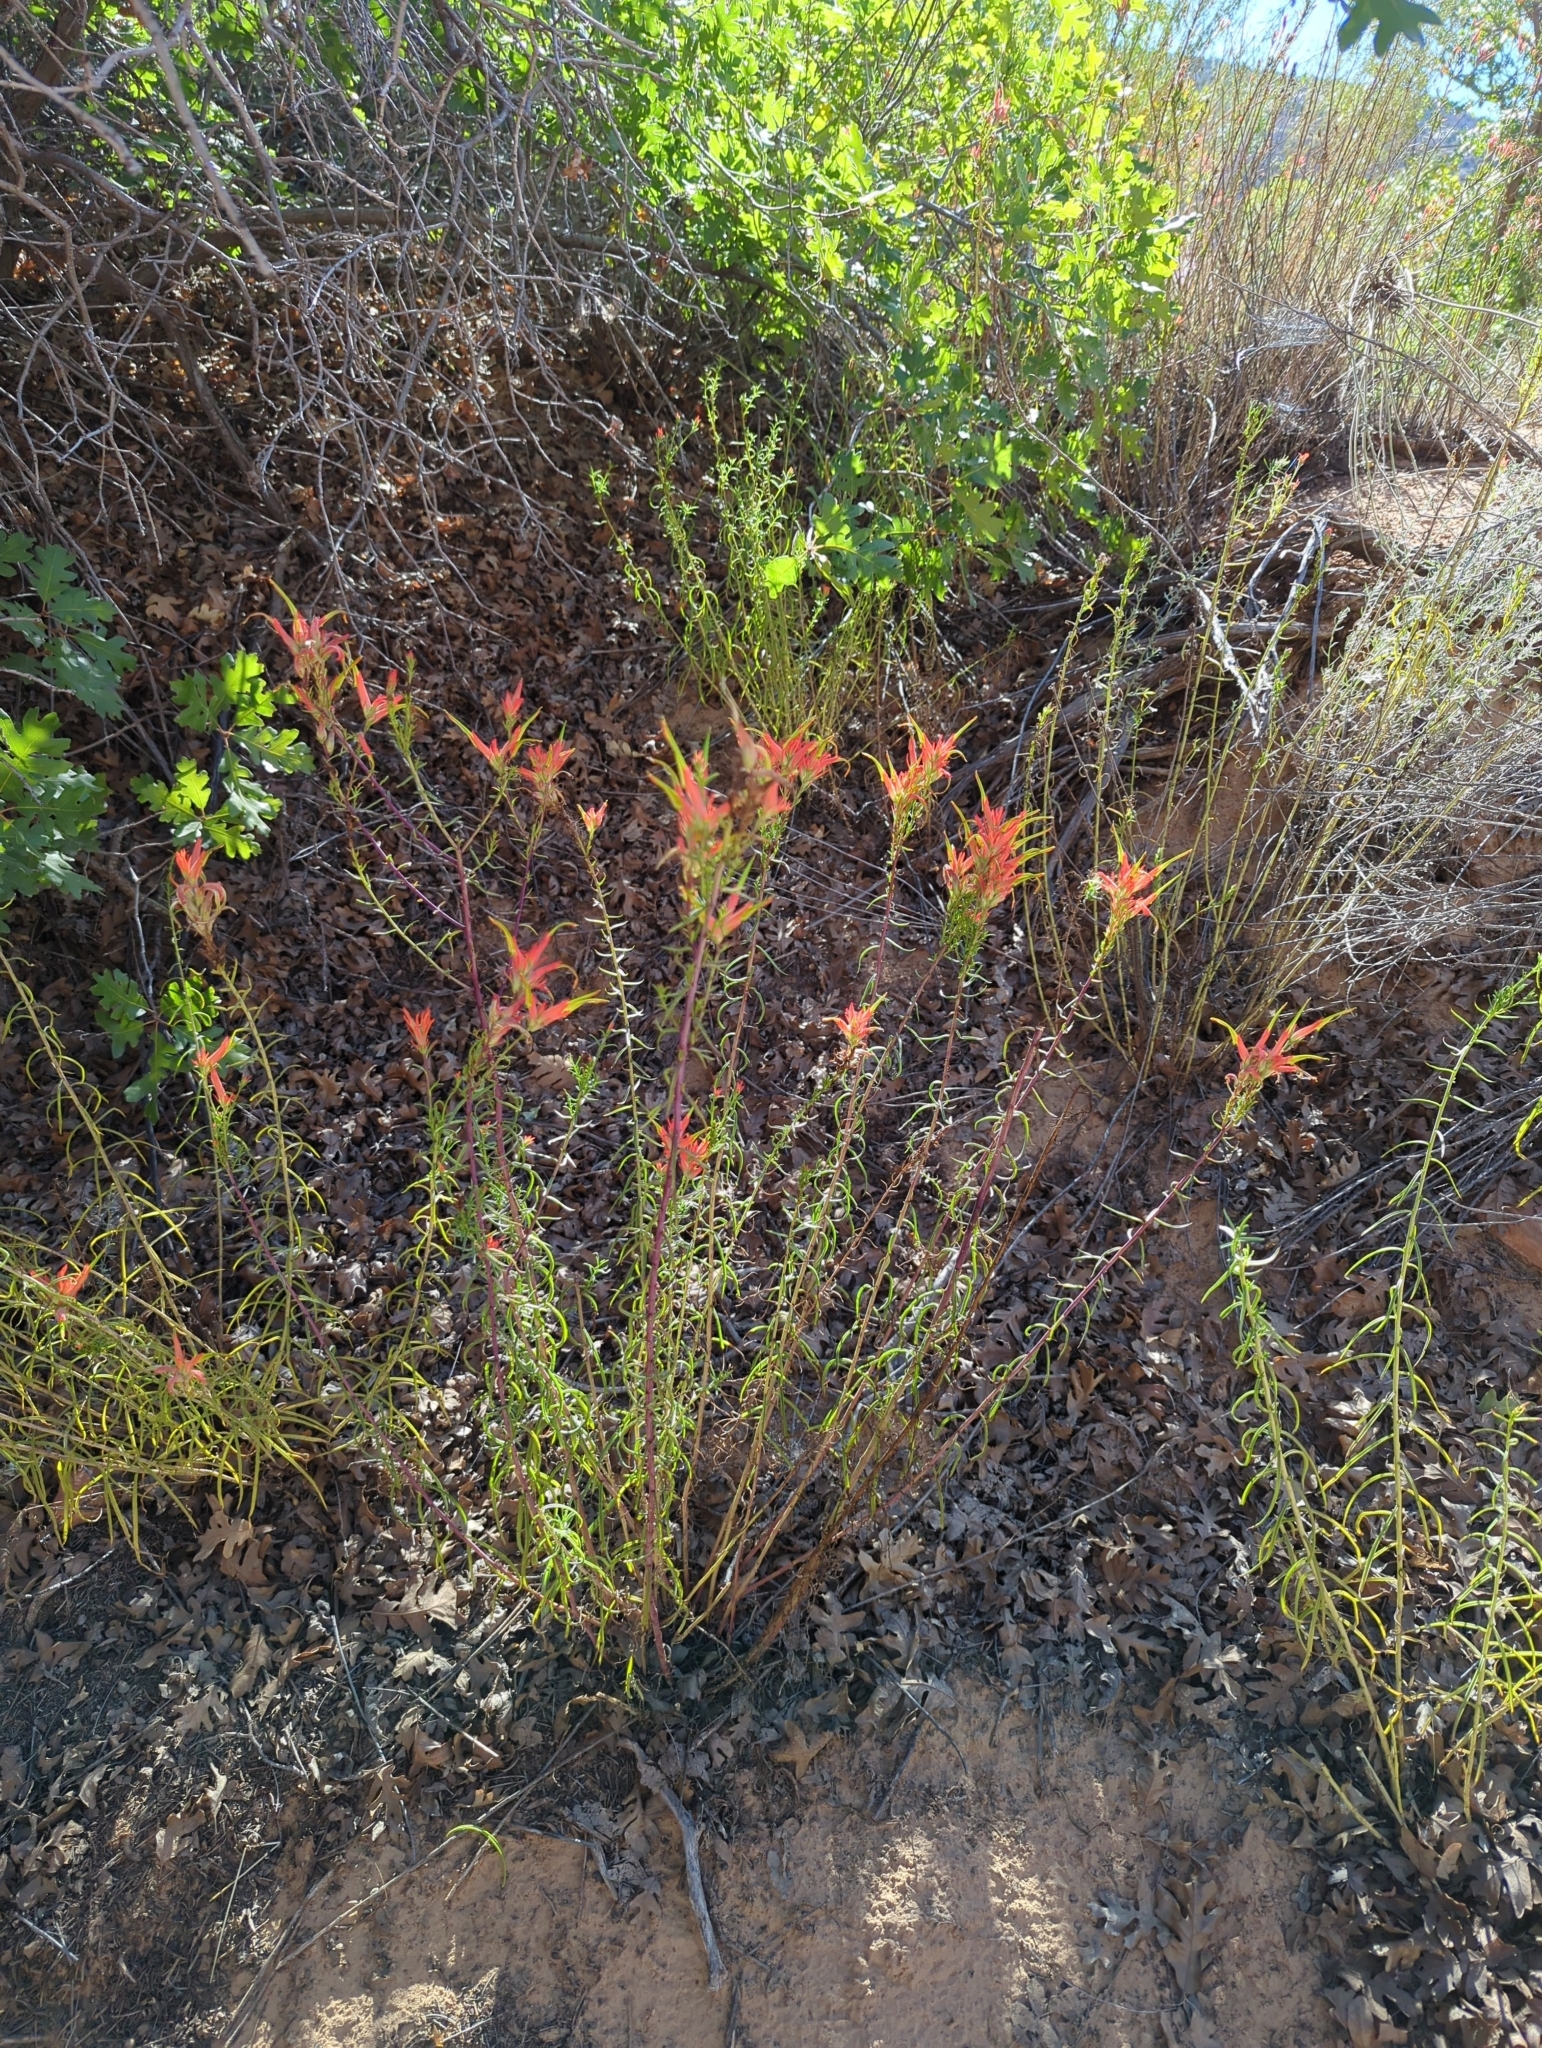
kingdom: Plantae
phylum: Tracheophyta
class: Magnoliopsida
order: Lamiales
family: Orobanchaceae
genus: Castilleja
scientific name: Castilleja linariifolia
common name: Wyoming paintbrush
